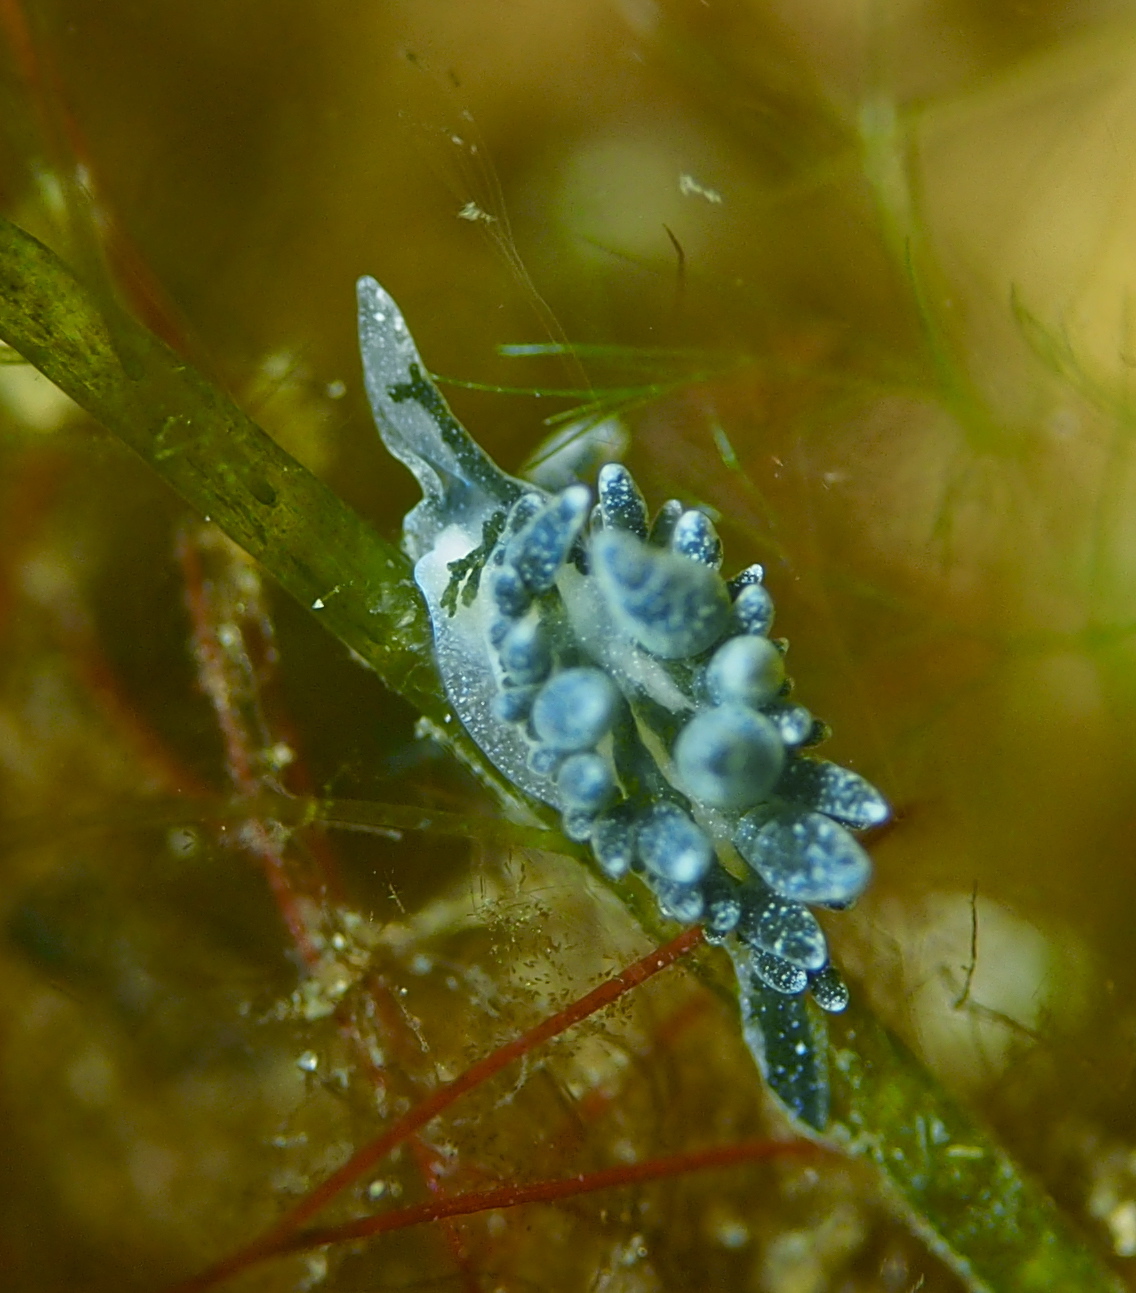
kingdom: Animalia
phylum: Mollusca
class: Gastropoda
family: Limapontiidae
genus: Placida
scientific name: Placida dendritica
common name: Dendritic nudibranch
